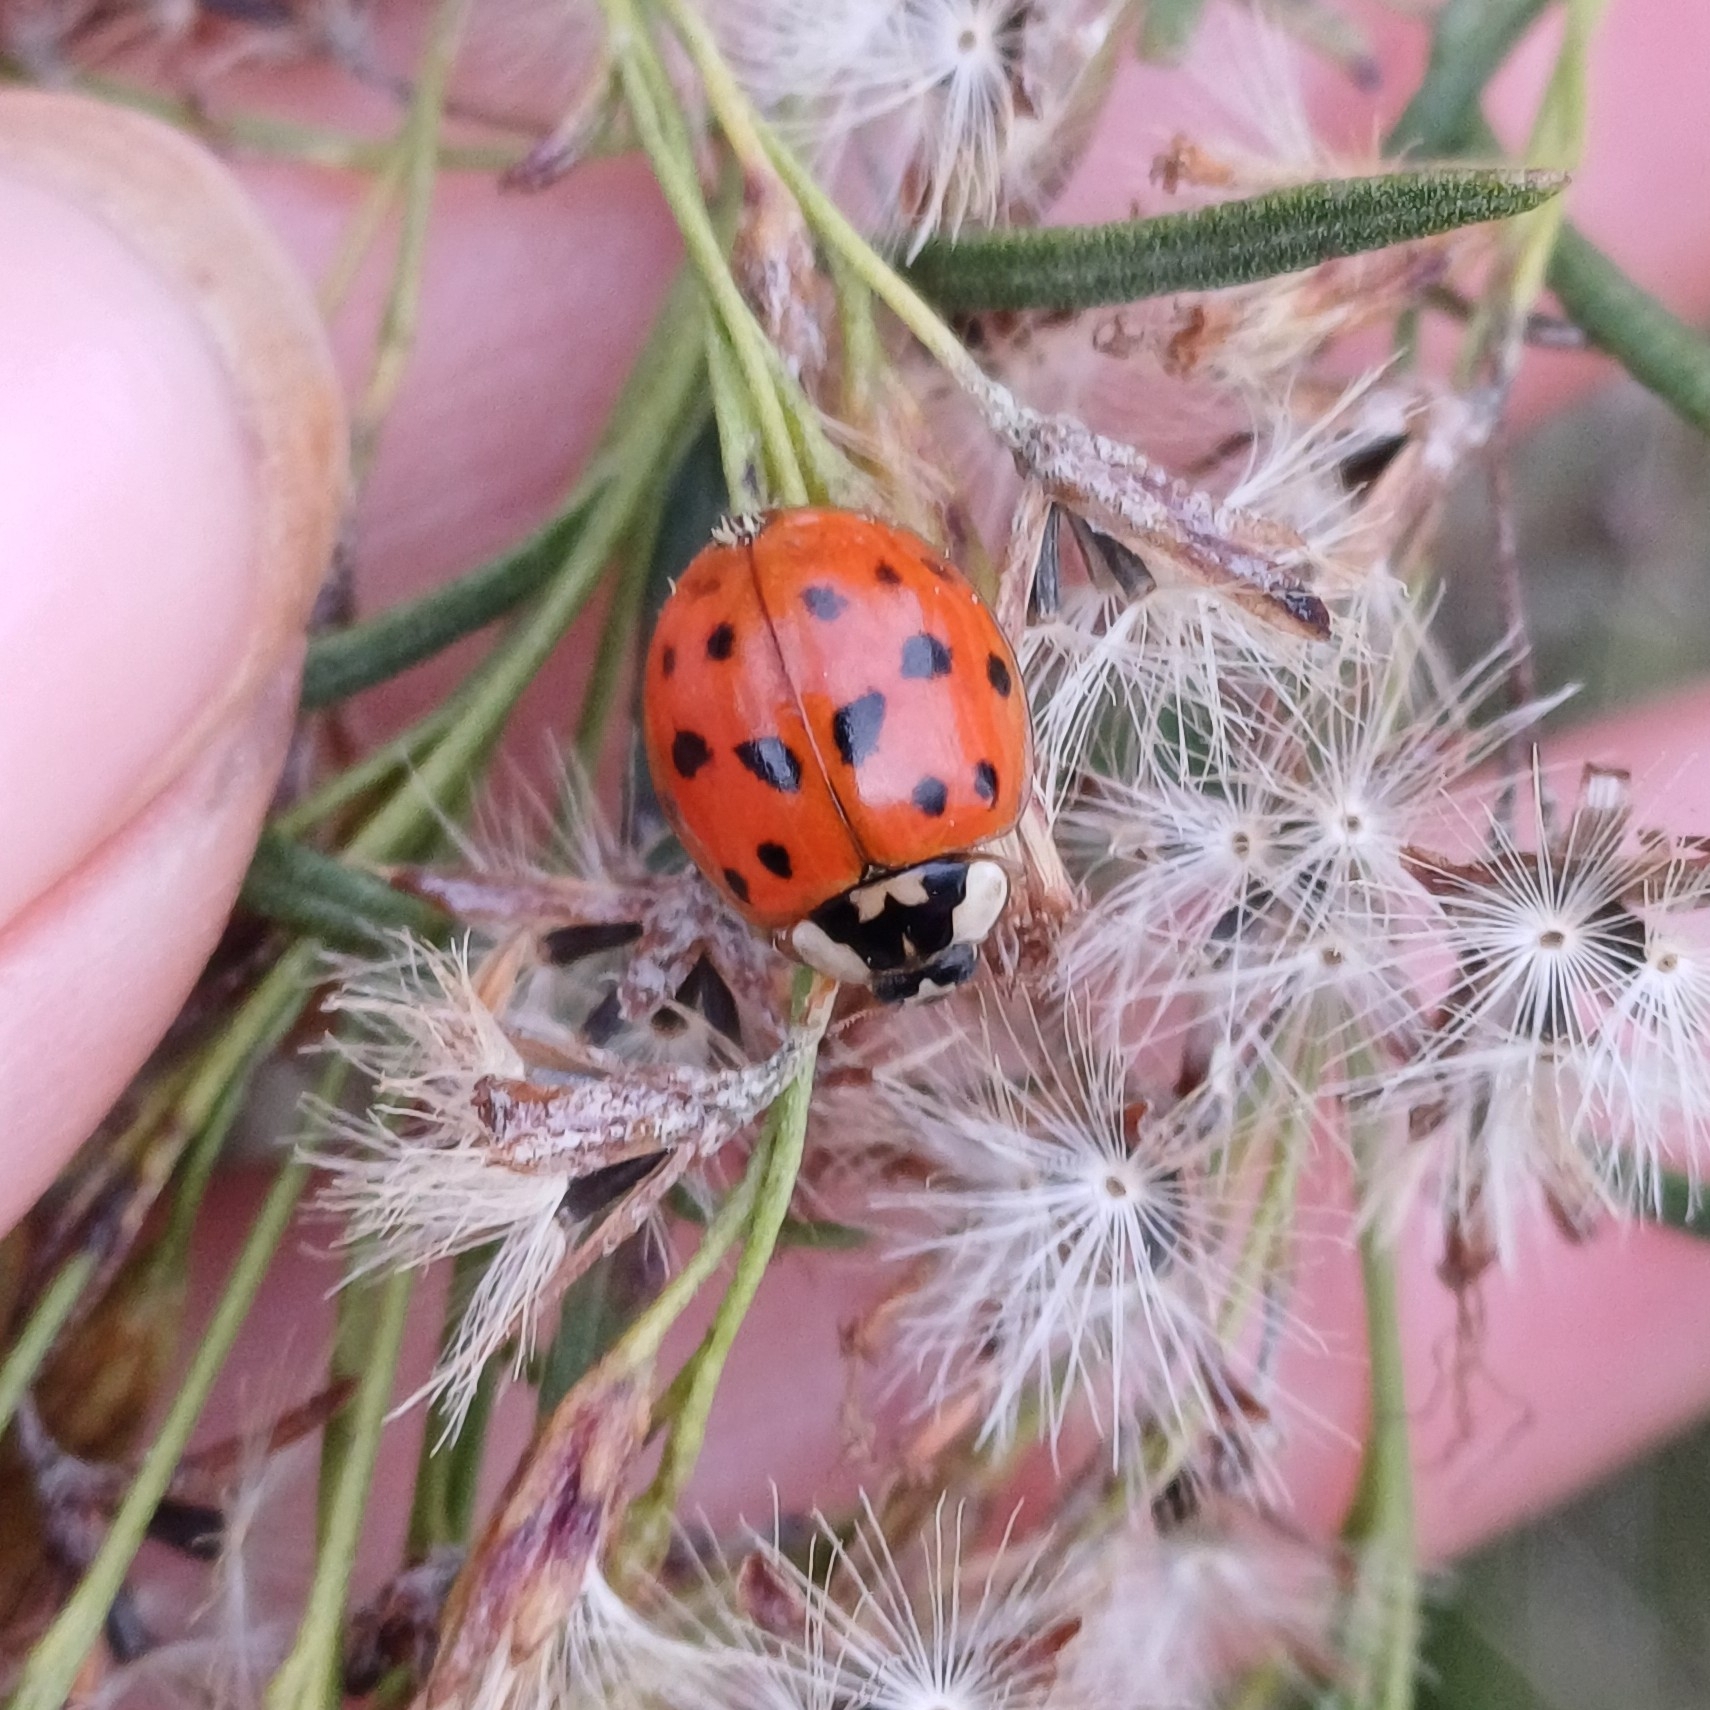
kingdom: Animalia
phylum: Arthropoda
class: Insecta
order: Coleoptera
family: Coccinellidae
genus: Harmonia
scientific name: Harmonia axyridis
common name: Harlequin ladybird
